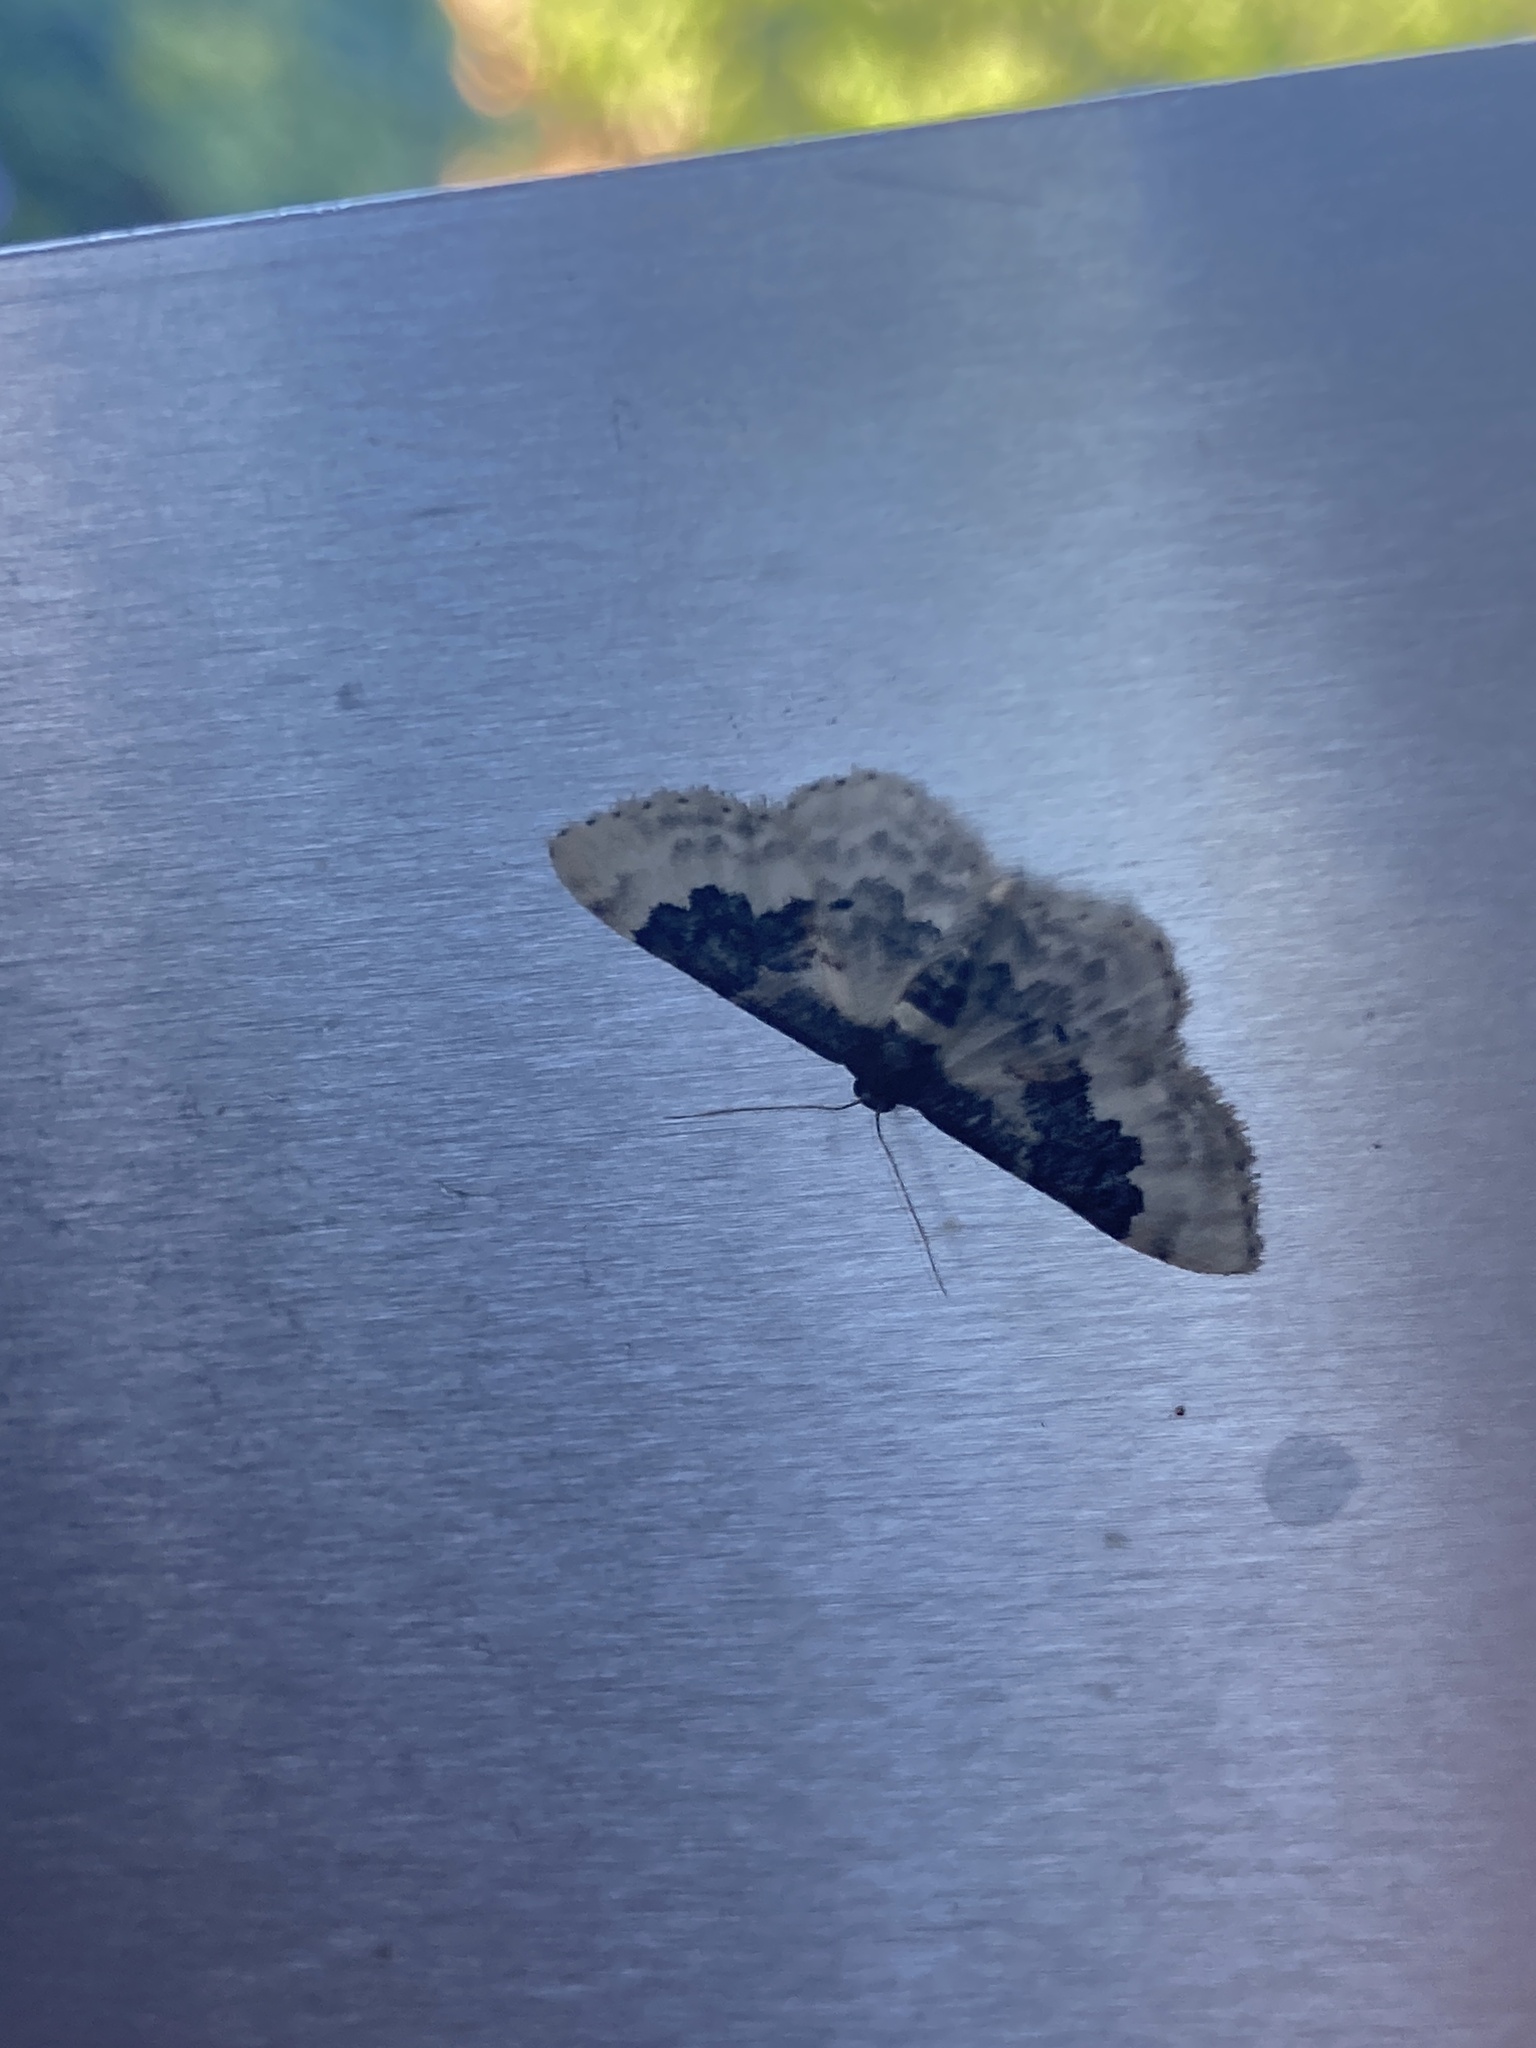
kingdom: Animalia
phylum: Arthropoda
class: Insecta
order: Lepidoptera
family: Geometridae
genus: Idaea
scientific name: Idaea rusticata
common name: Least carpet
